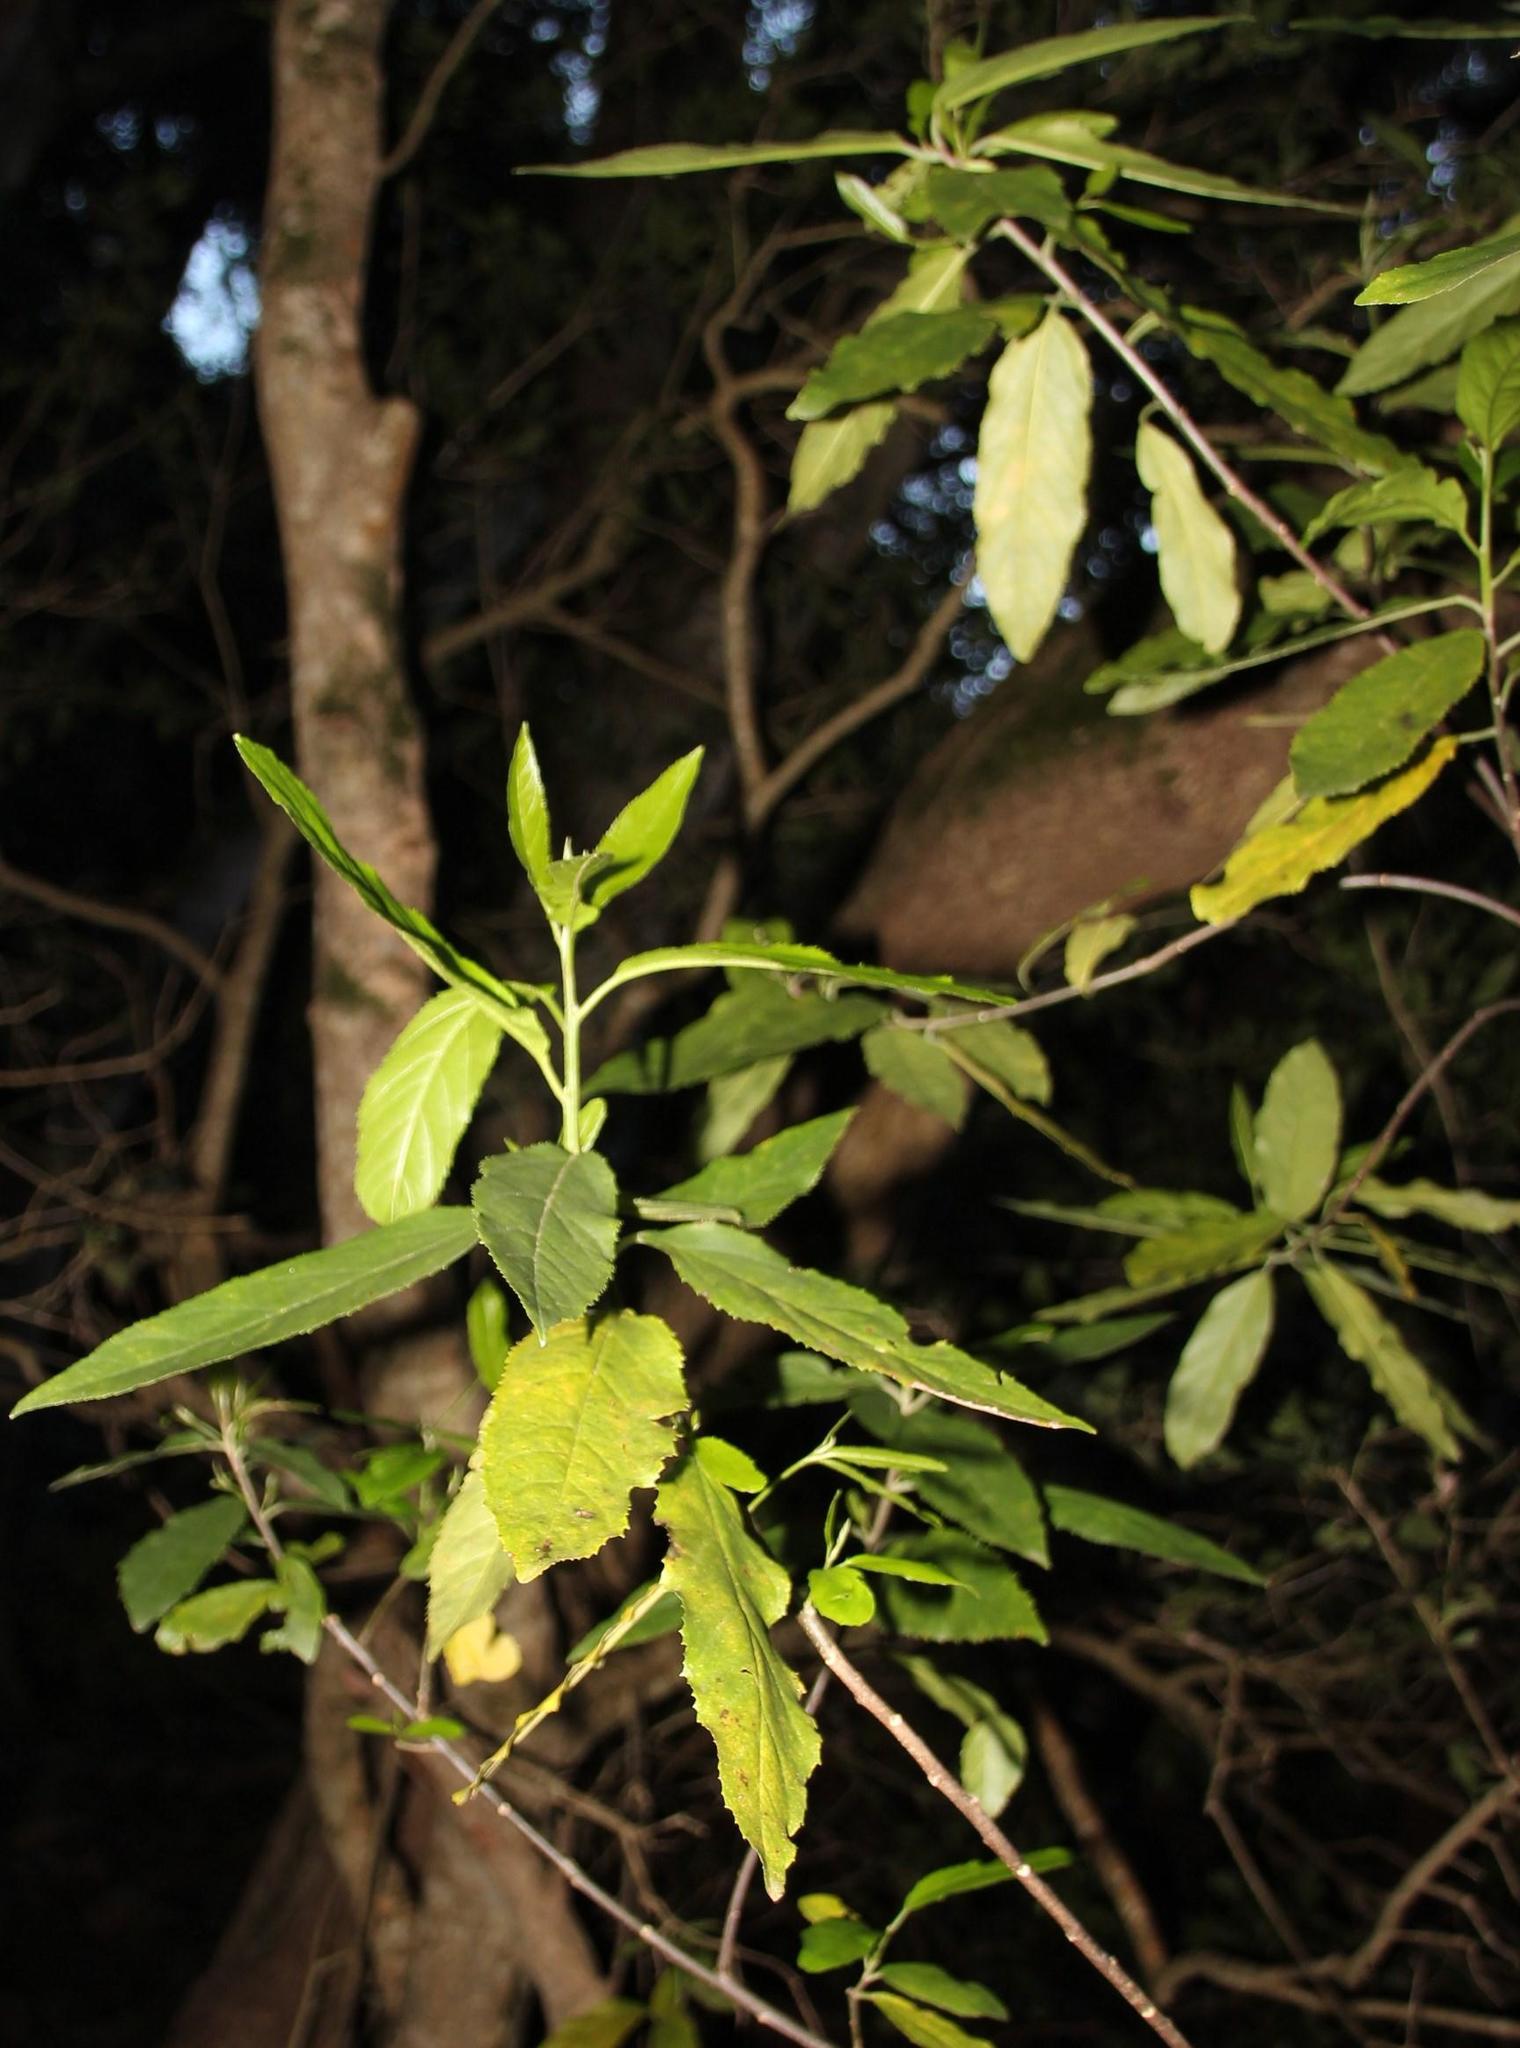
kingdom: Plantae
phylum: Tracheophyta
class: Magnoliopsida
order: Malpighiales
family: Achariaceae
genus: Kiggelaria
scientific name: Kiggelaria africana
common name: Wild peach
